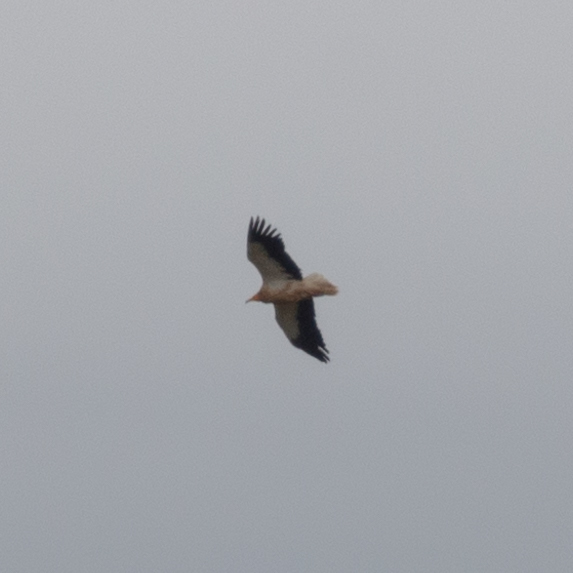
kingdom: Animalia
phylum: Chordata
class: Aves
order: Accipitriformes
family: Accipitridae
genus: Neophron
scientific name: Neophron percnopterus
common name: Egyptian vulture
